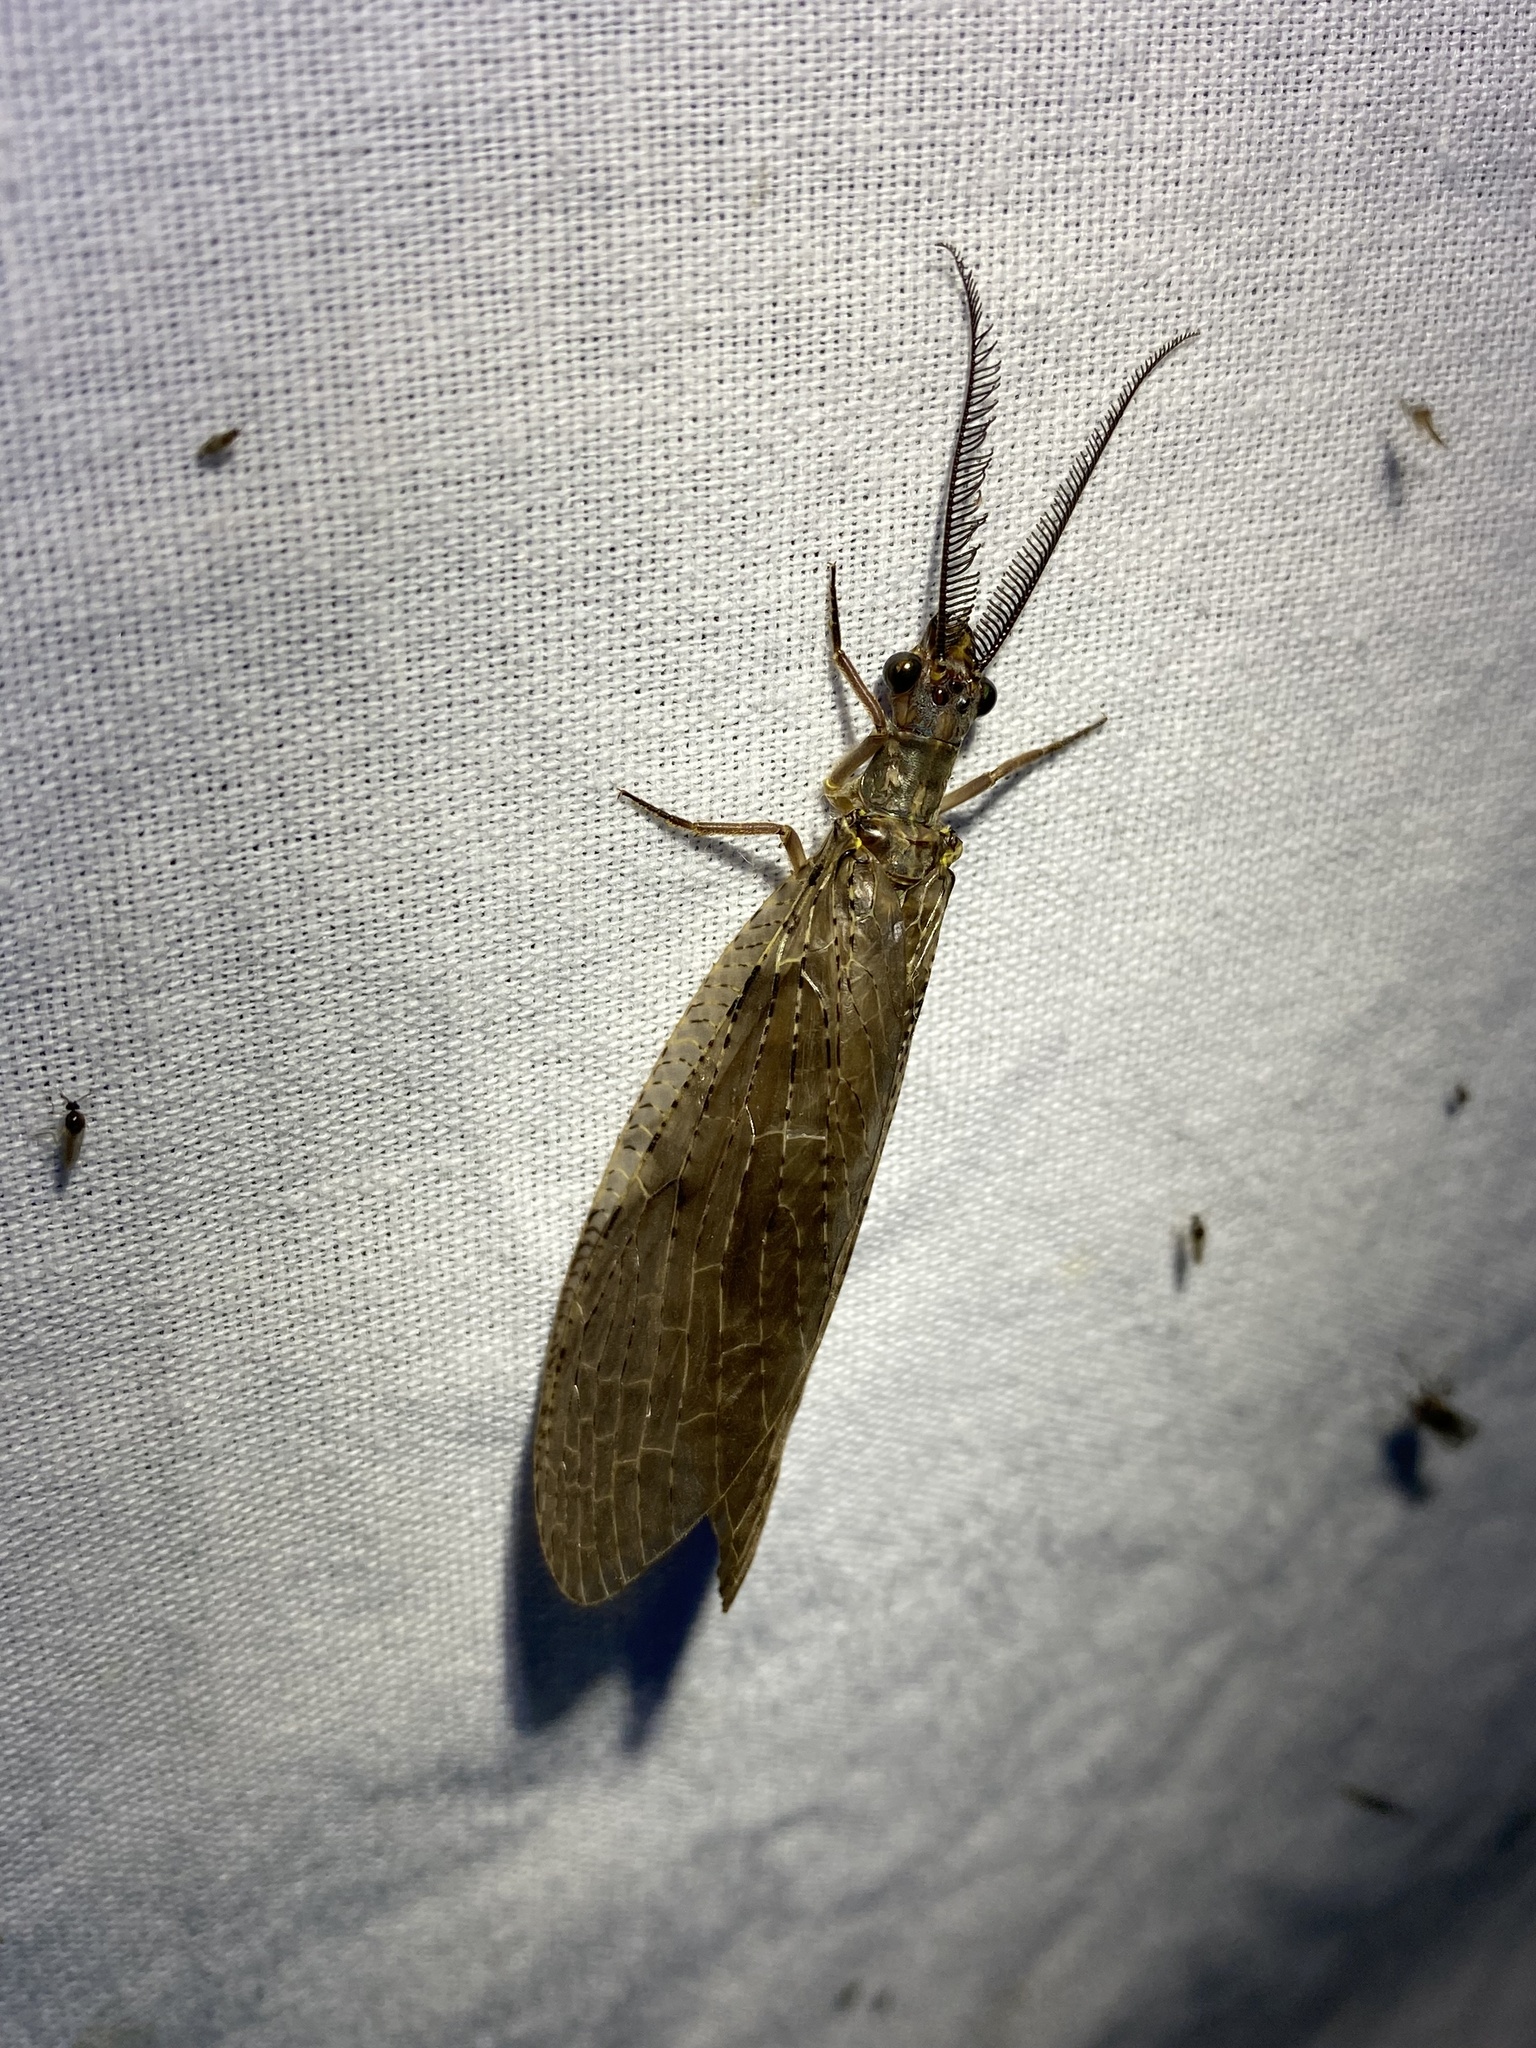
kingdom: Animalia
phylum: Arthropoda
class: Insecta
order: Megaloptera
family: Corydalidae
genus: Chauliodes
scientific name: Chauliodes pectinicornis
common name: Summer fishfly
